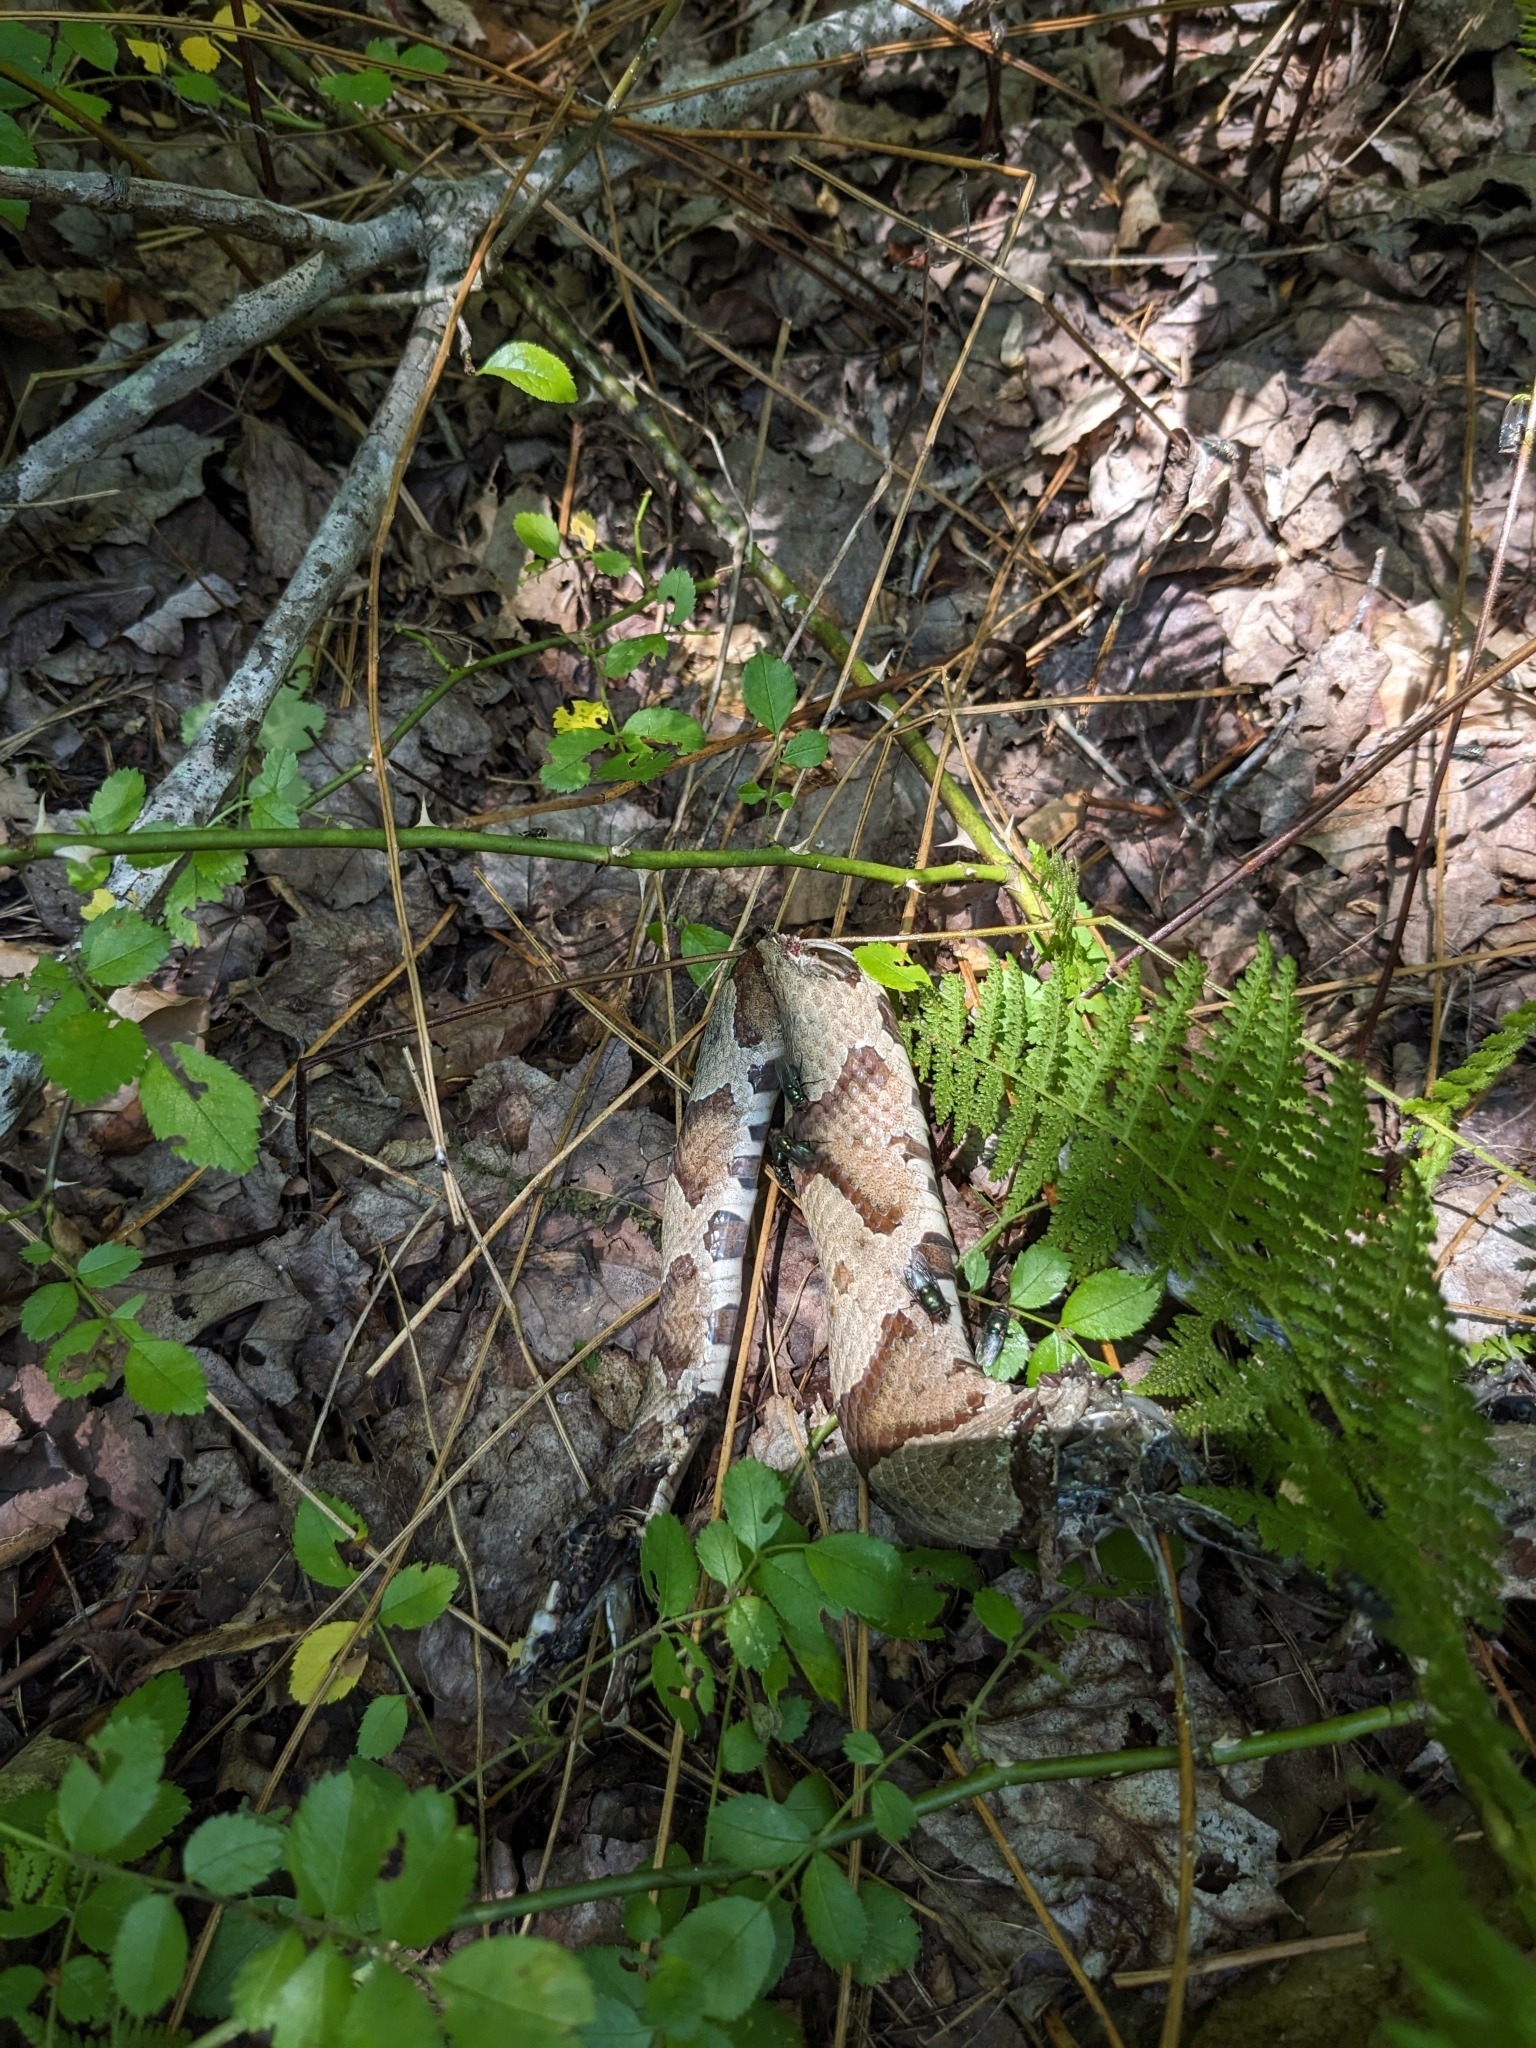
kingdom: Animalia
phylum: Chordata
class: Squamata
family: Viperidae
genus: Agkistrodon
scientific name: Agkistrodon contortrix
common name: Northern copperhead
